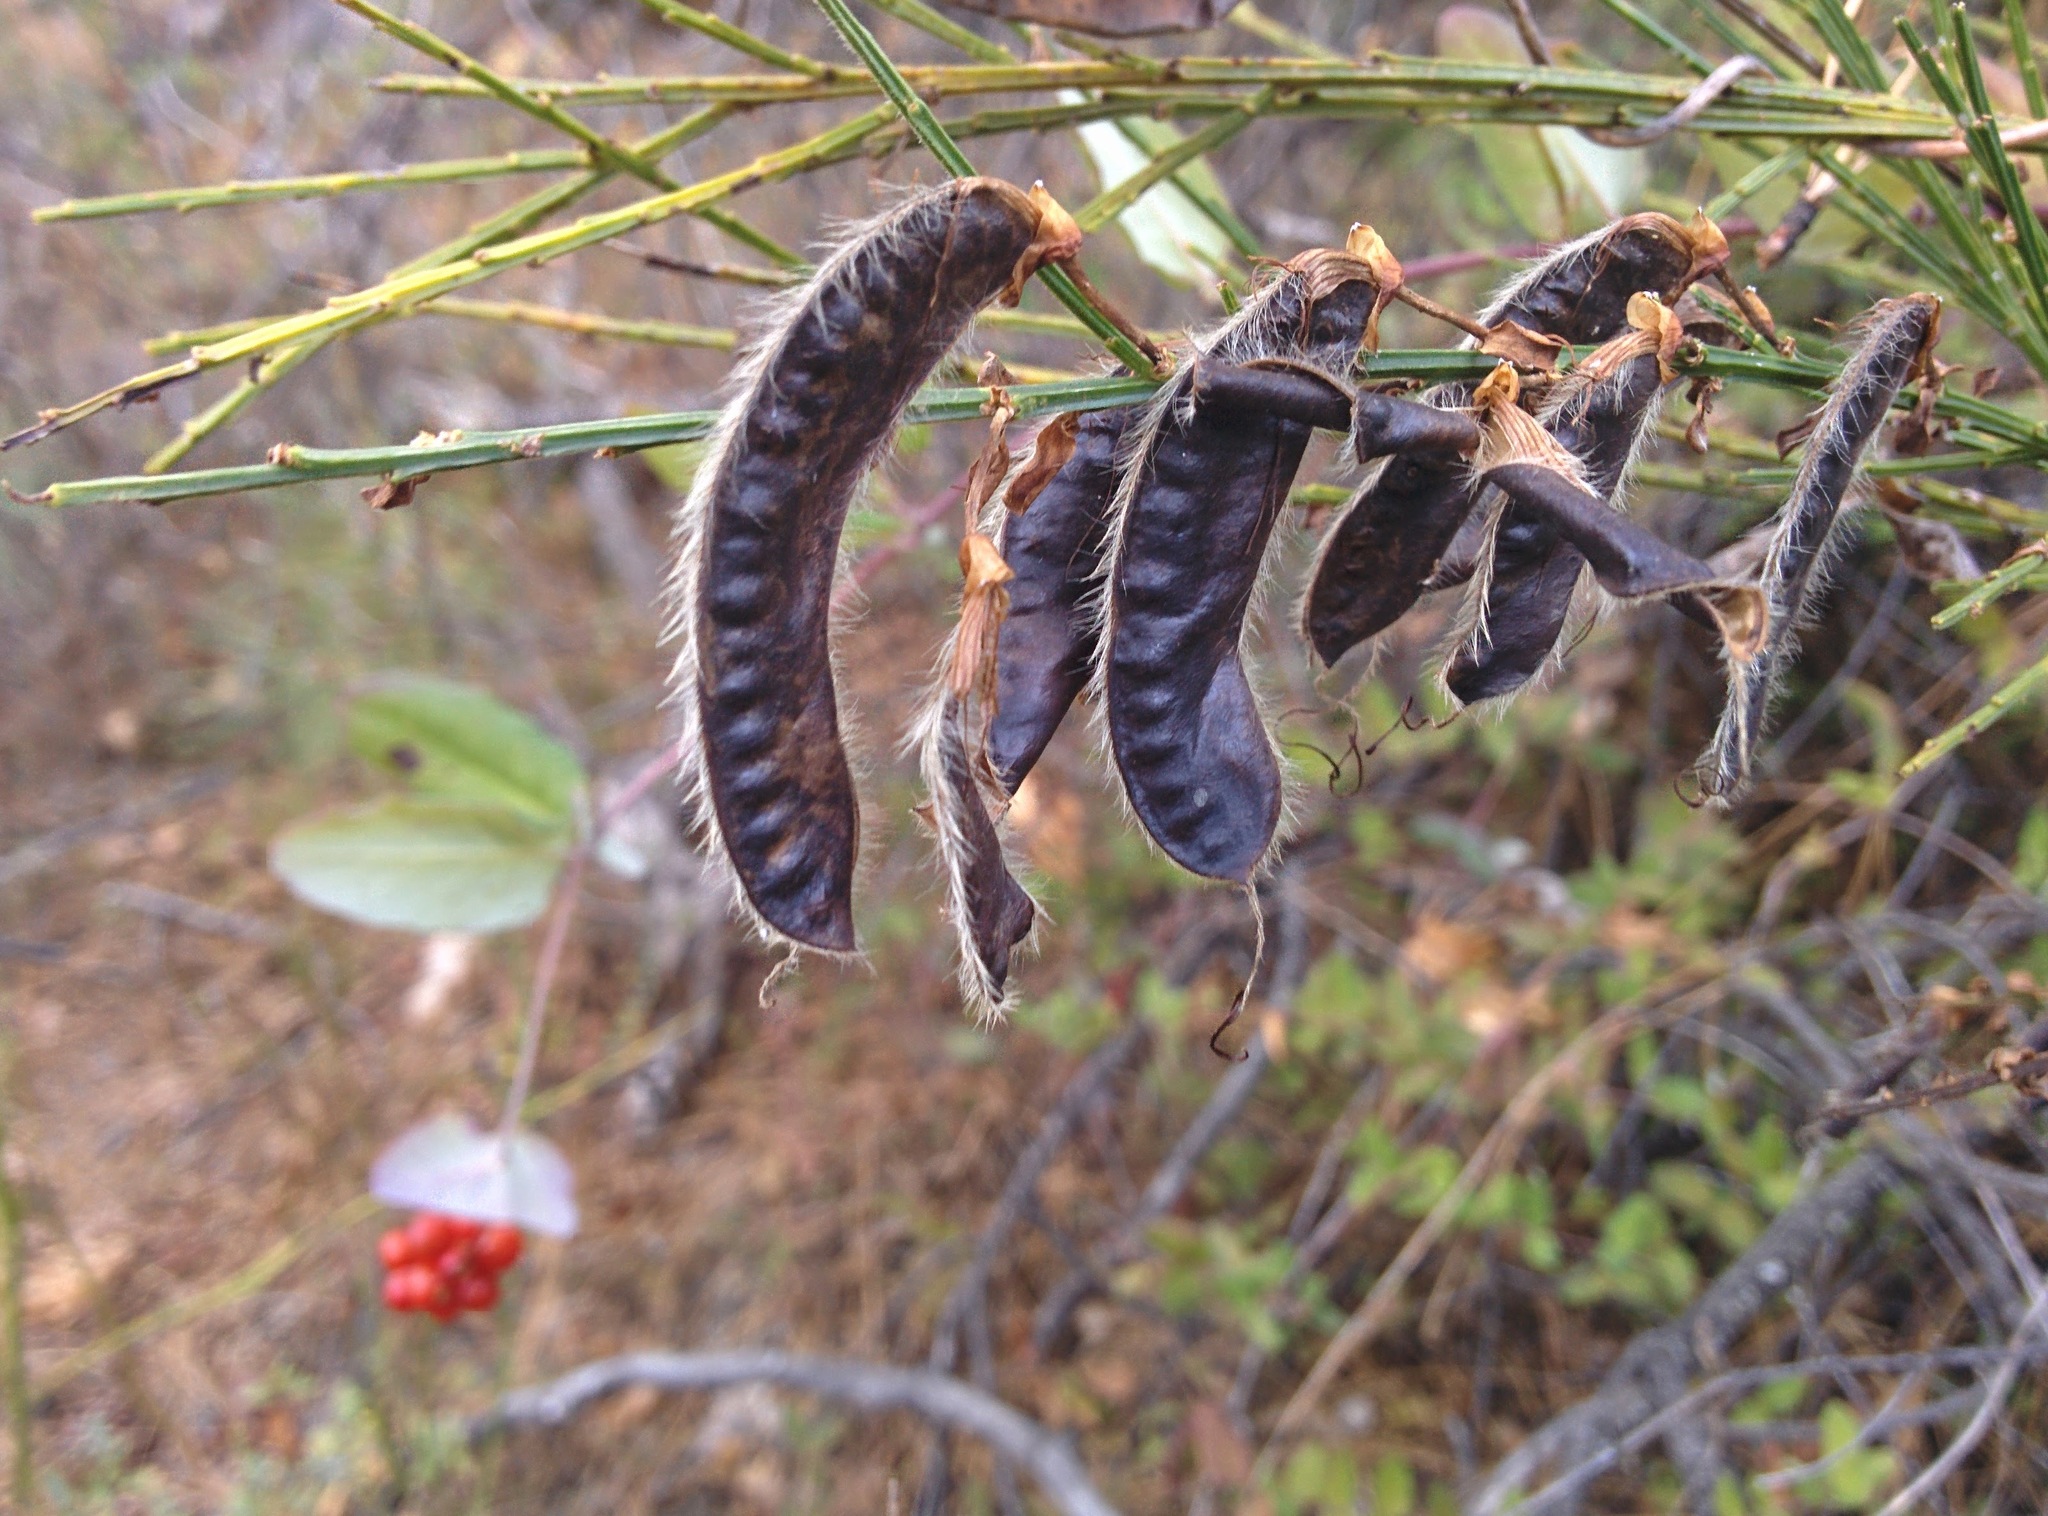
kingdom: Plantae
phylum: Tracheophyta
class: Magnoliopsida
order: Fabales
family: Fabaceae
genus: Cytisus
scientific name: Cytisus scoparius
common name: Scotch broom
